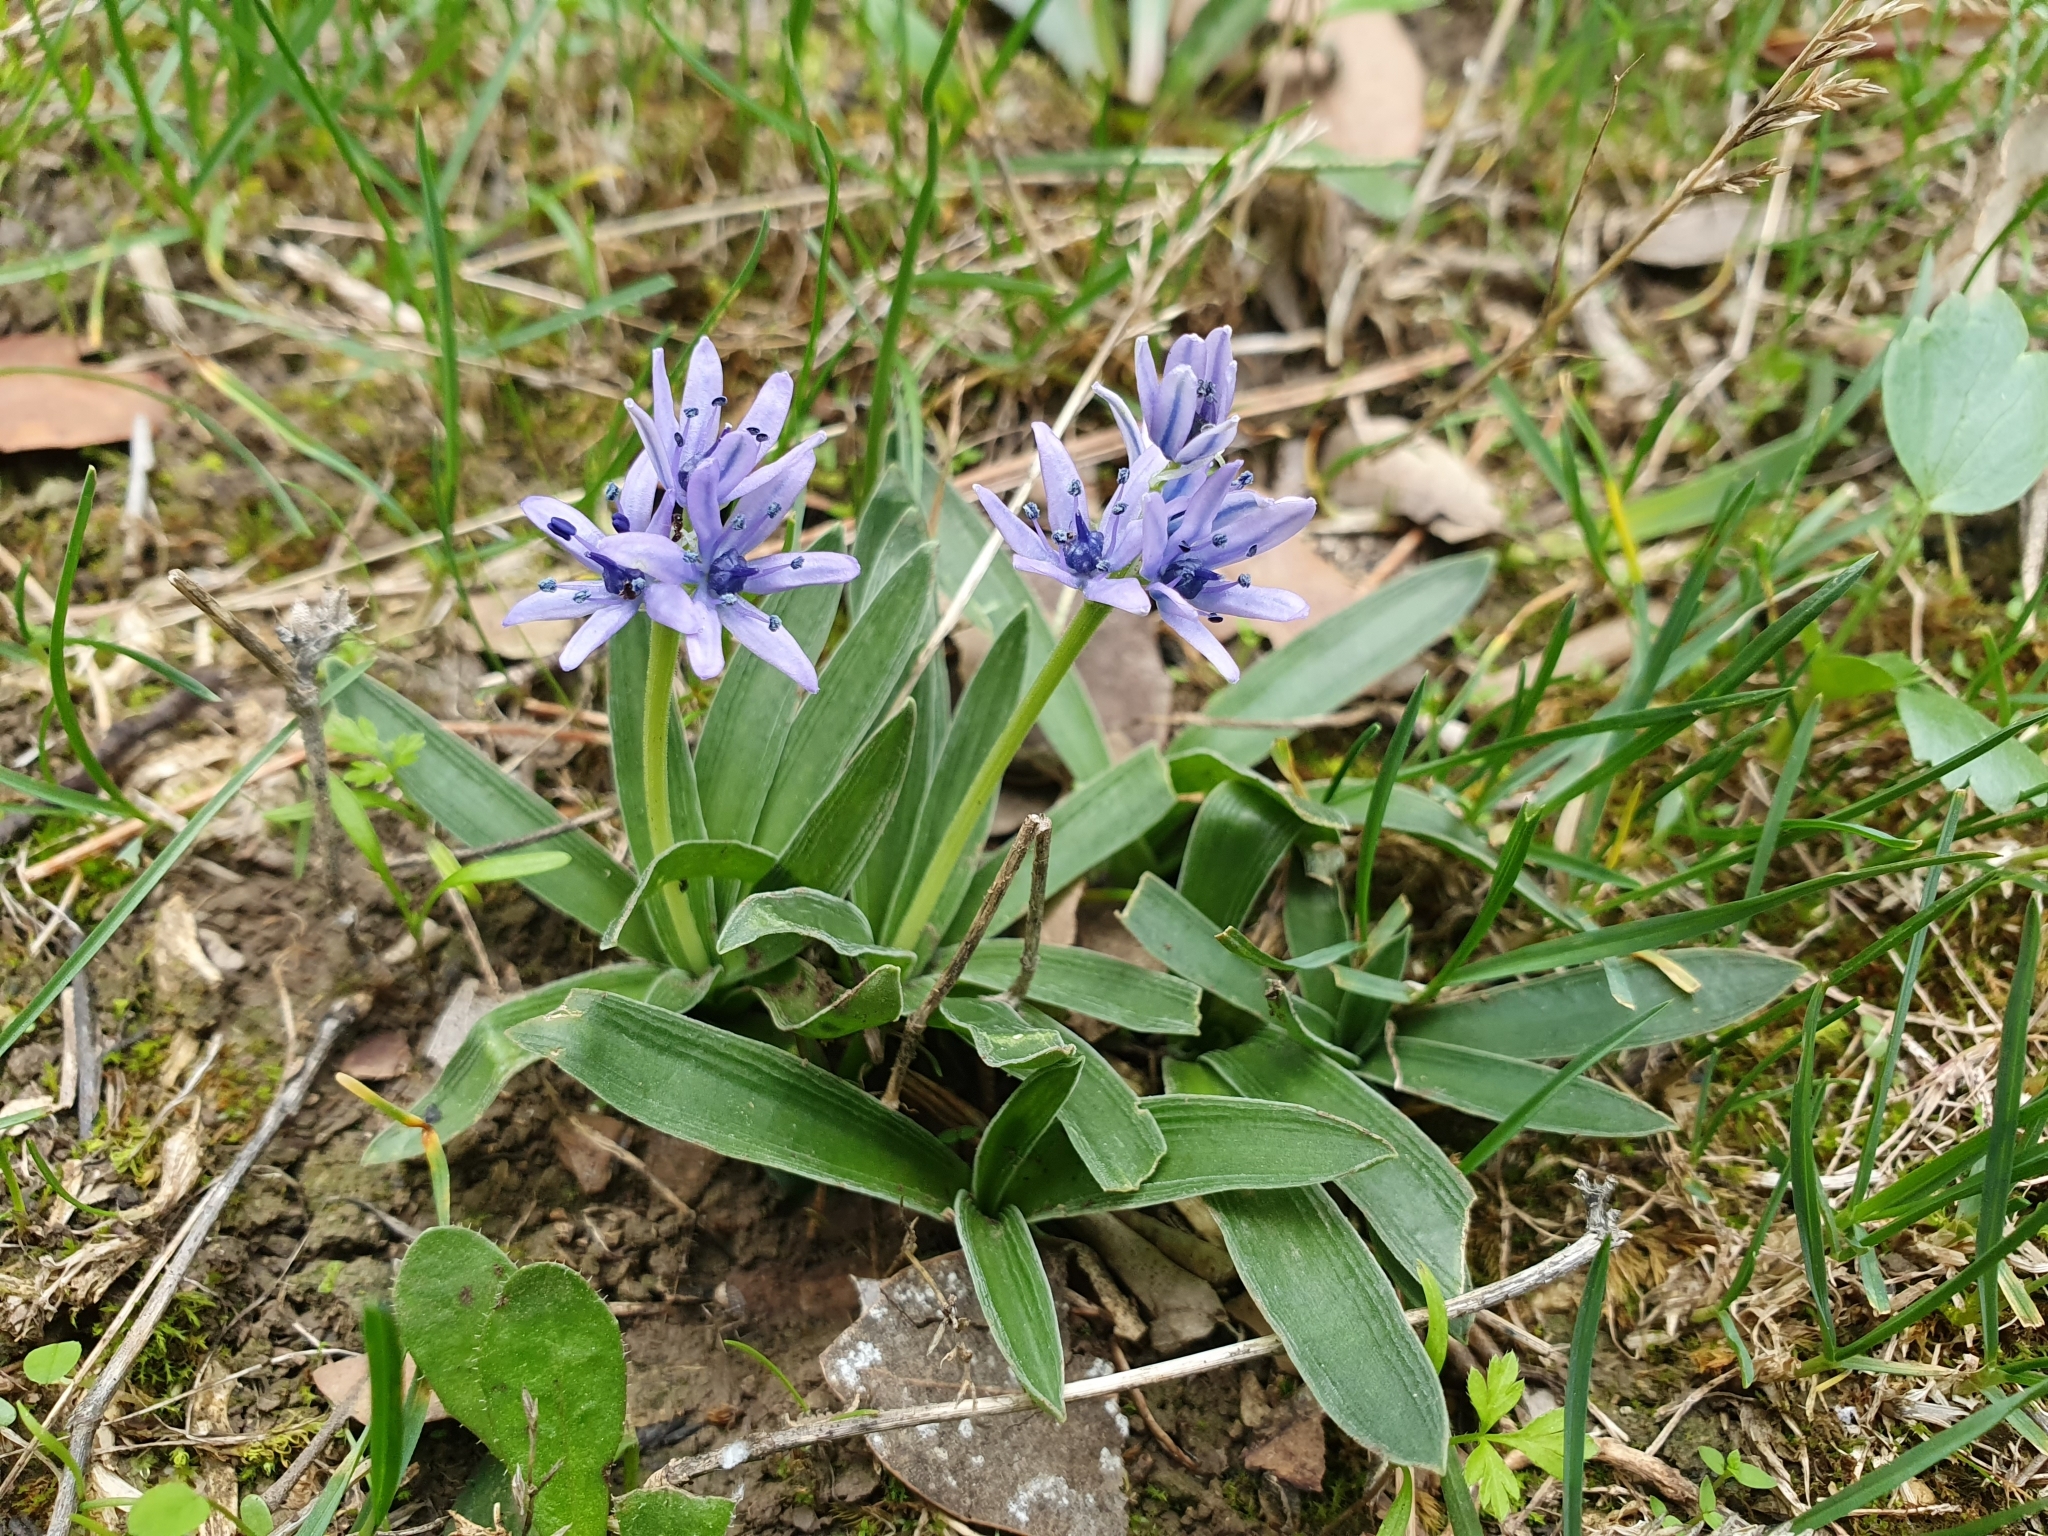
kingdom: Plantae
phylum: Tracheophyta
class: Liliopsida
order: Asparagales
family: Asparagaceae
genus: Hyacinthoides
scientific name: Hyacinthoides lingulata
